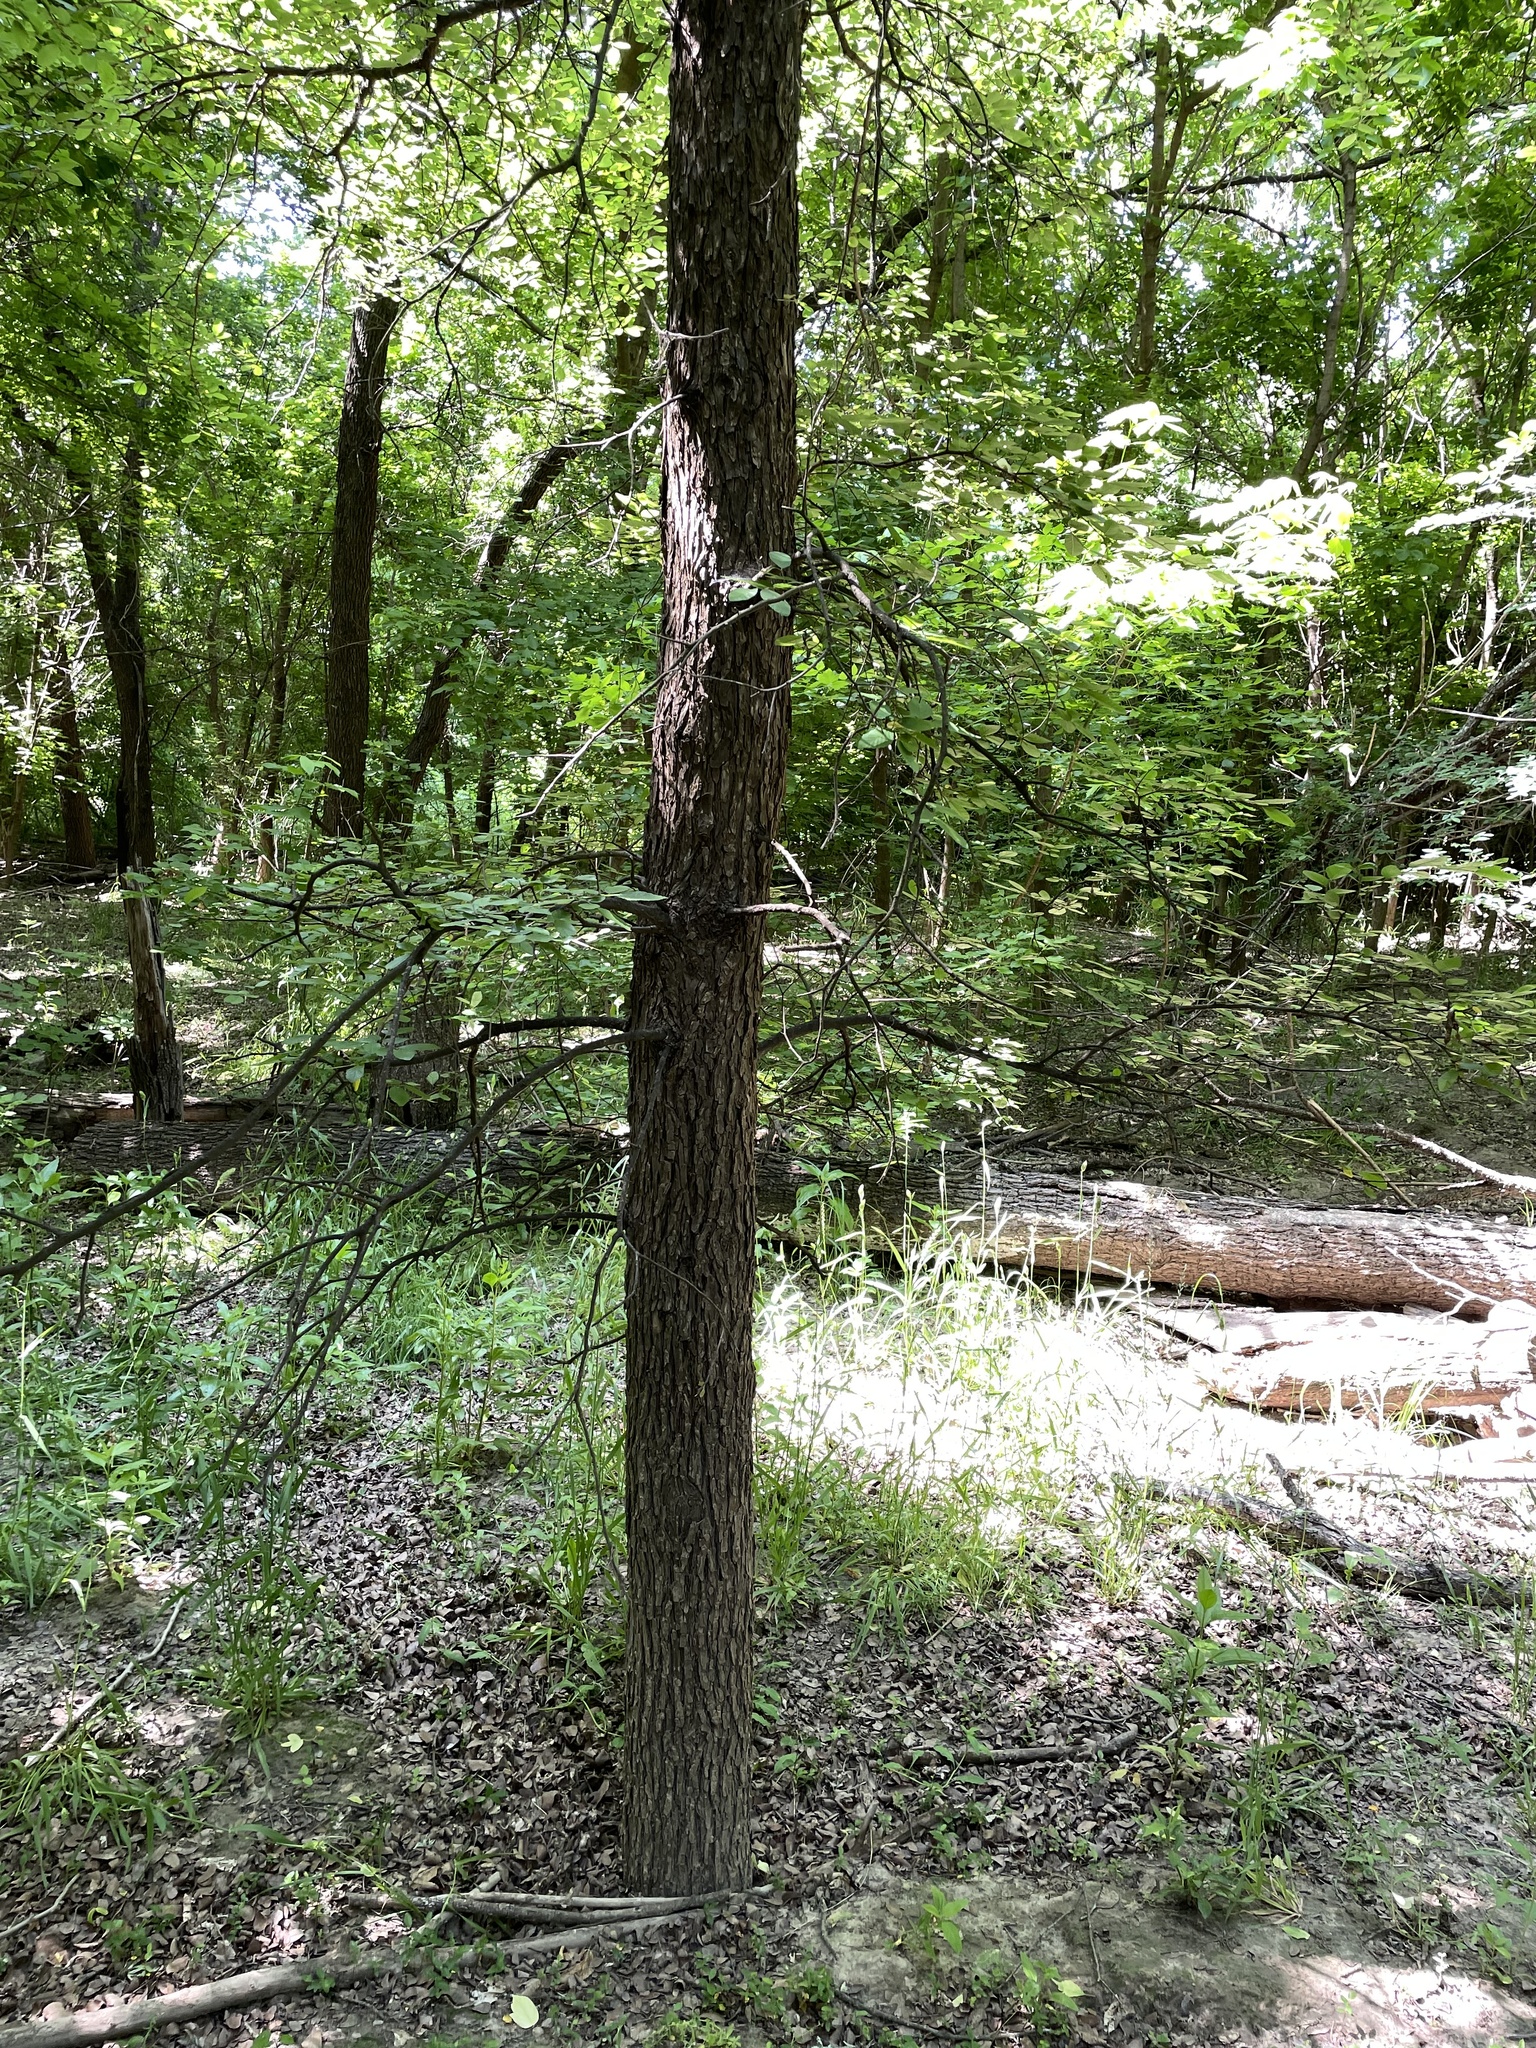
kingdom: Plantae
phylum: Tracheophyta
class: Magnoliopsida
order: Rosales
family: Ulmaceae
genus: Ulmus
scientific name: Ulmus crassifolia
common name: Basket elm
